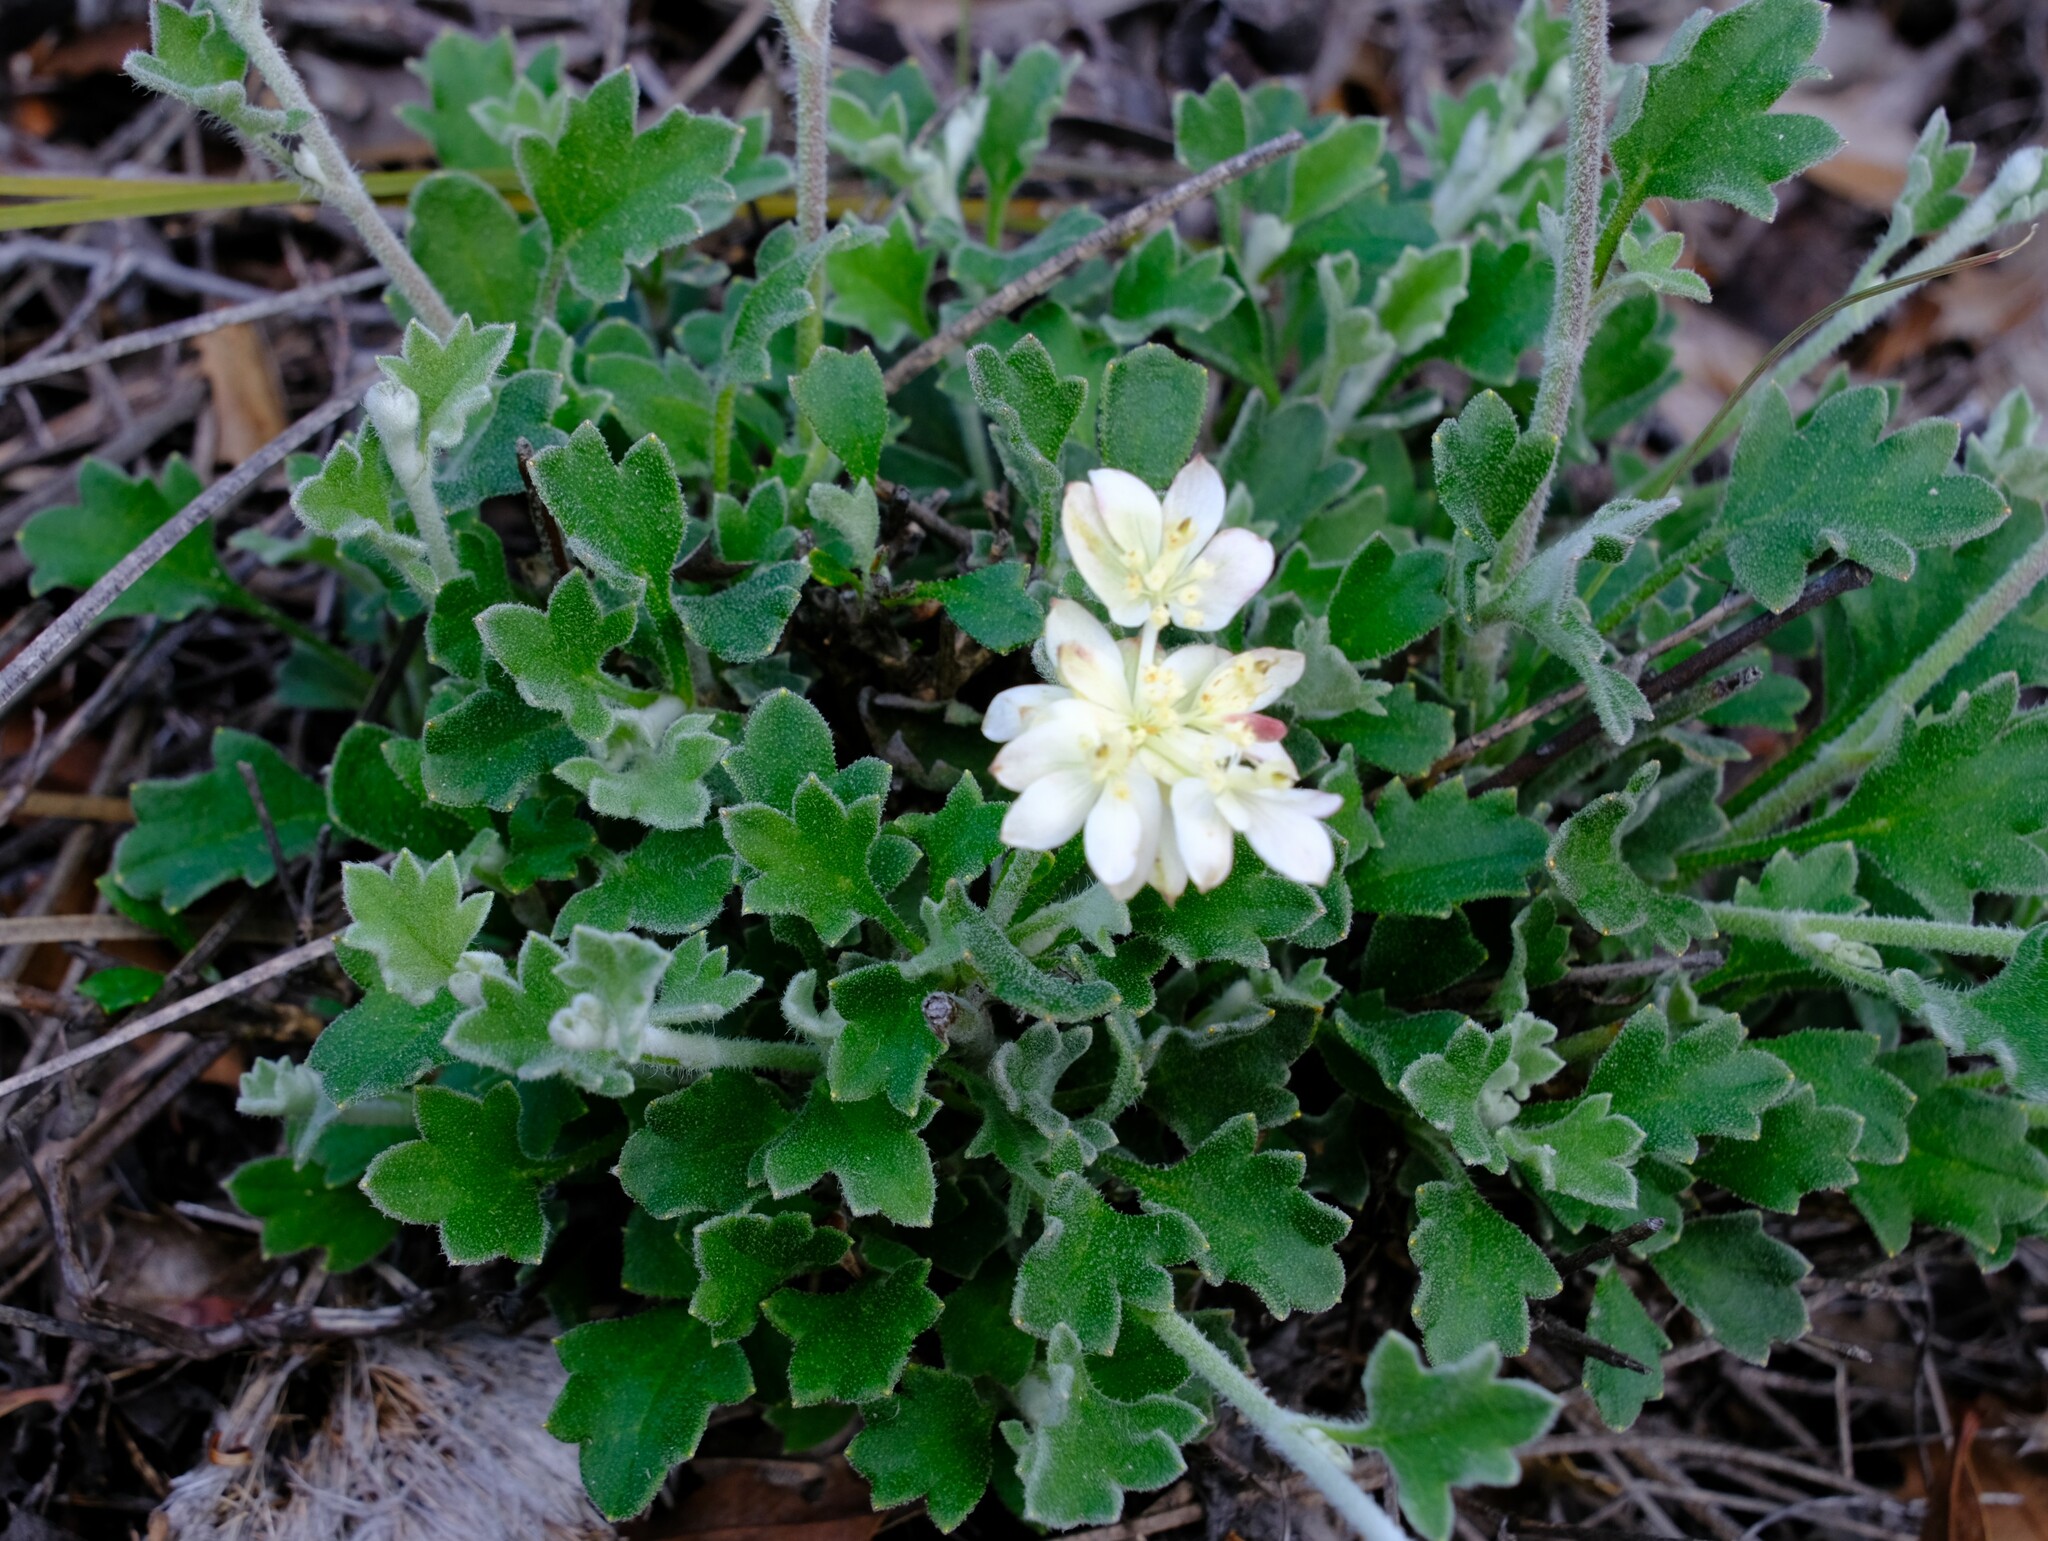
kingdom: Plantae
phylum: Tracheophyta
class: Magnoliopsida
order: Apiales
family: Apiaceae
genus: Xanthosia
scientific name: Xanthosia tomentosa
